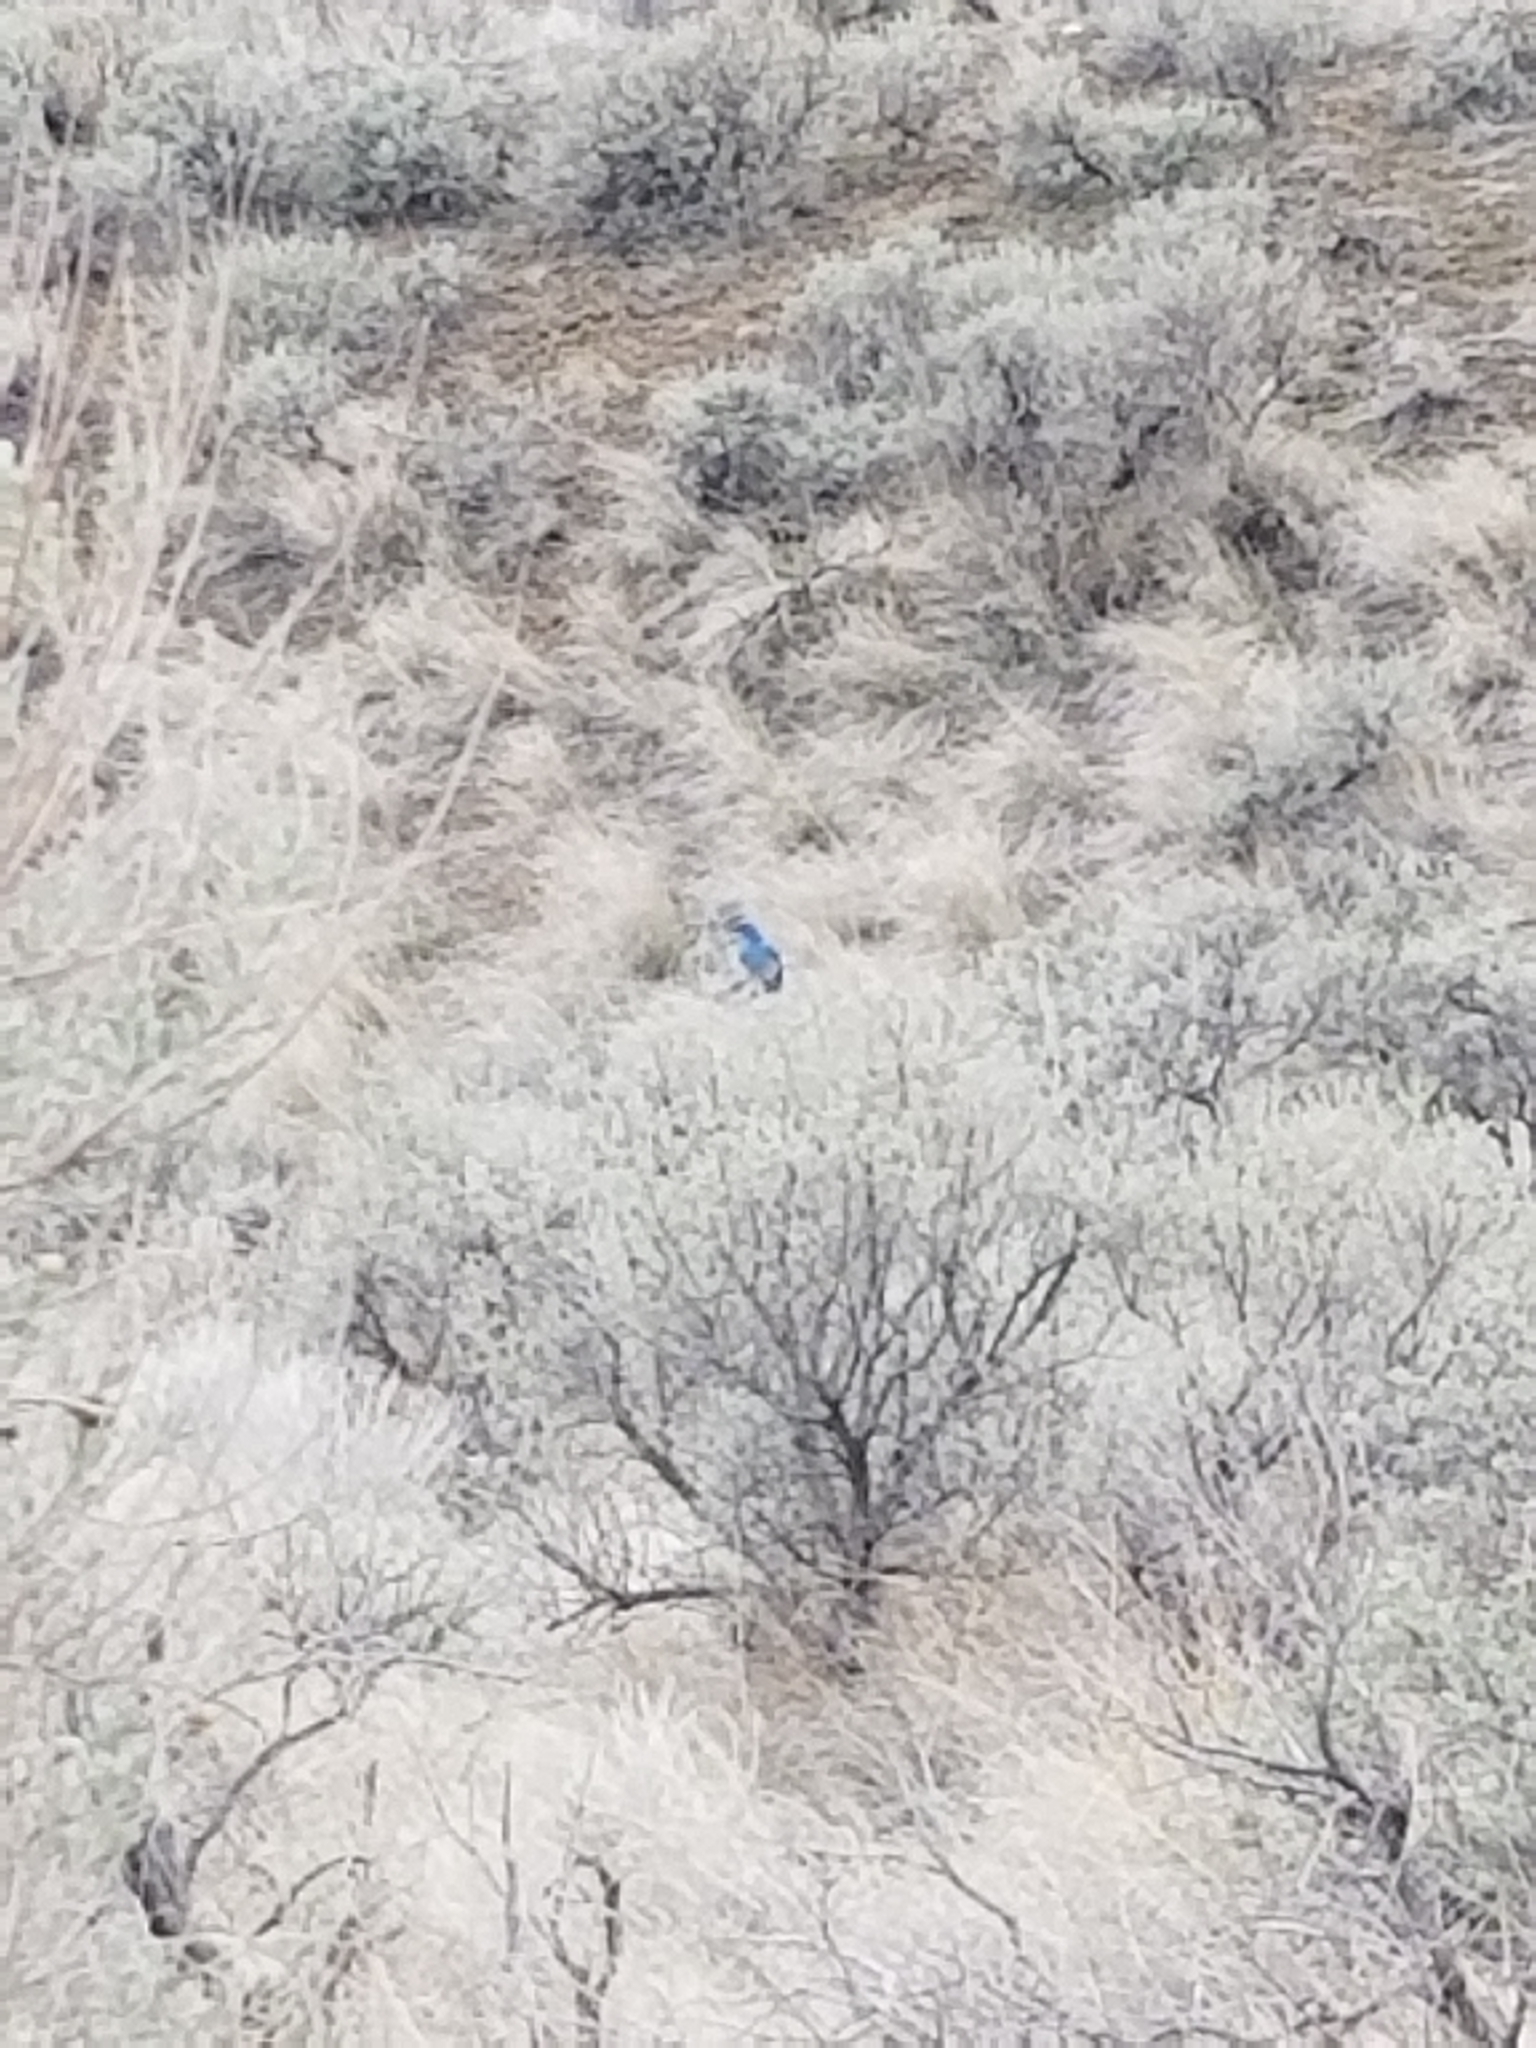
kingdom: Animalia
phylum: Chordata
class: Aves
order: Passeriformes
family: Turdidae
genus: Sialia
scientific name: Sialia currucoides
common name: Mountain bluebird
